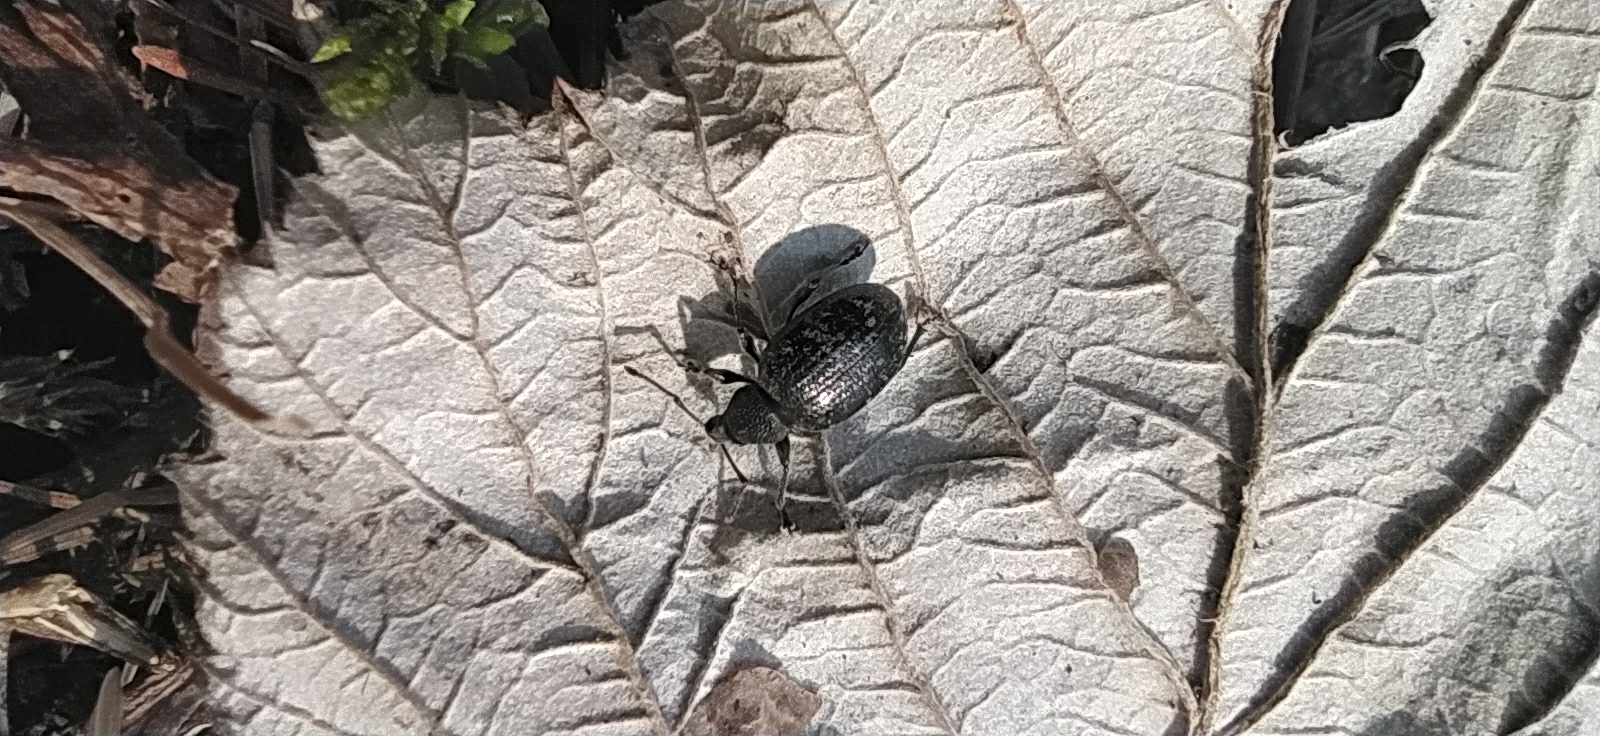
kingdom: Animalia
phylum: Arthropoda
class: Insecta
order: Coleoptera
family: Curculionidae
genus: Otiorhynchus
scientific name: Otiorhynchus nodosus
